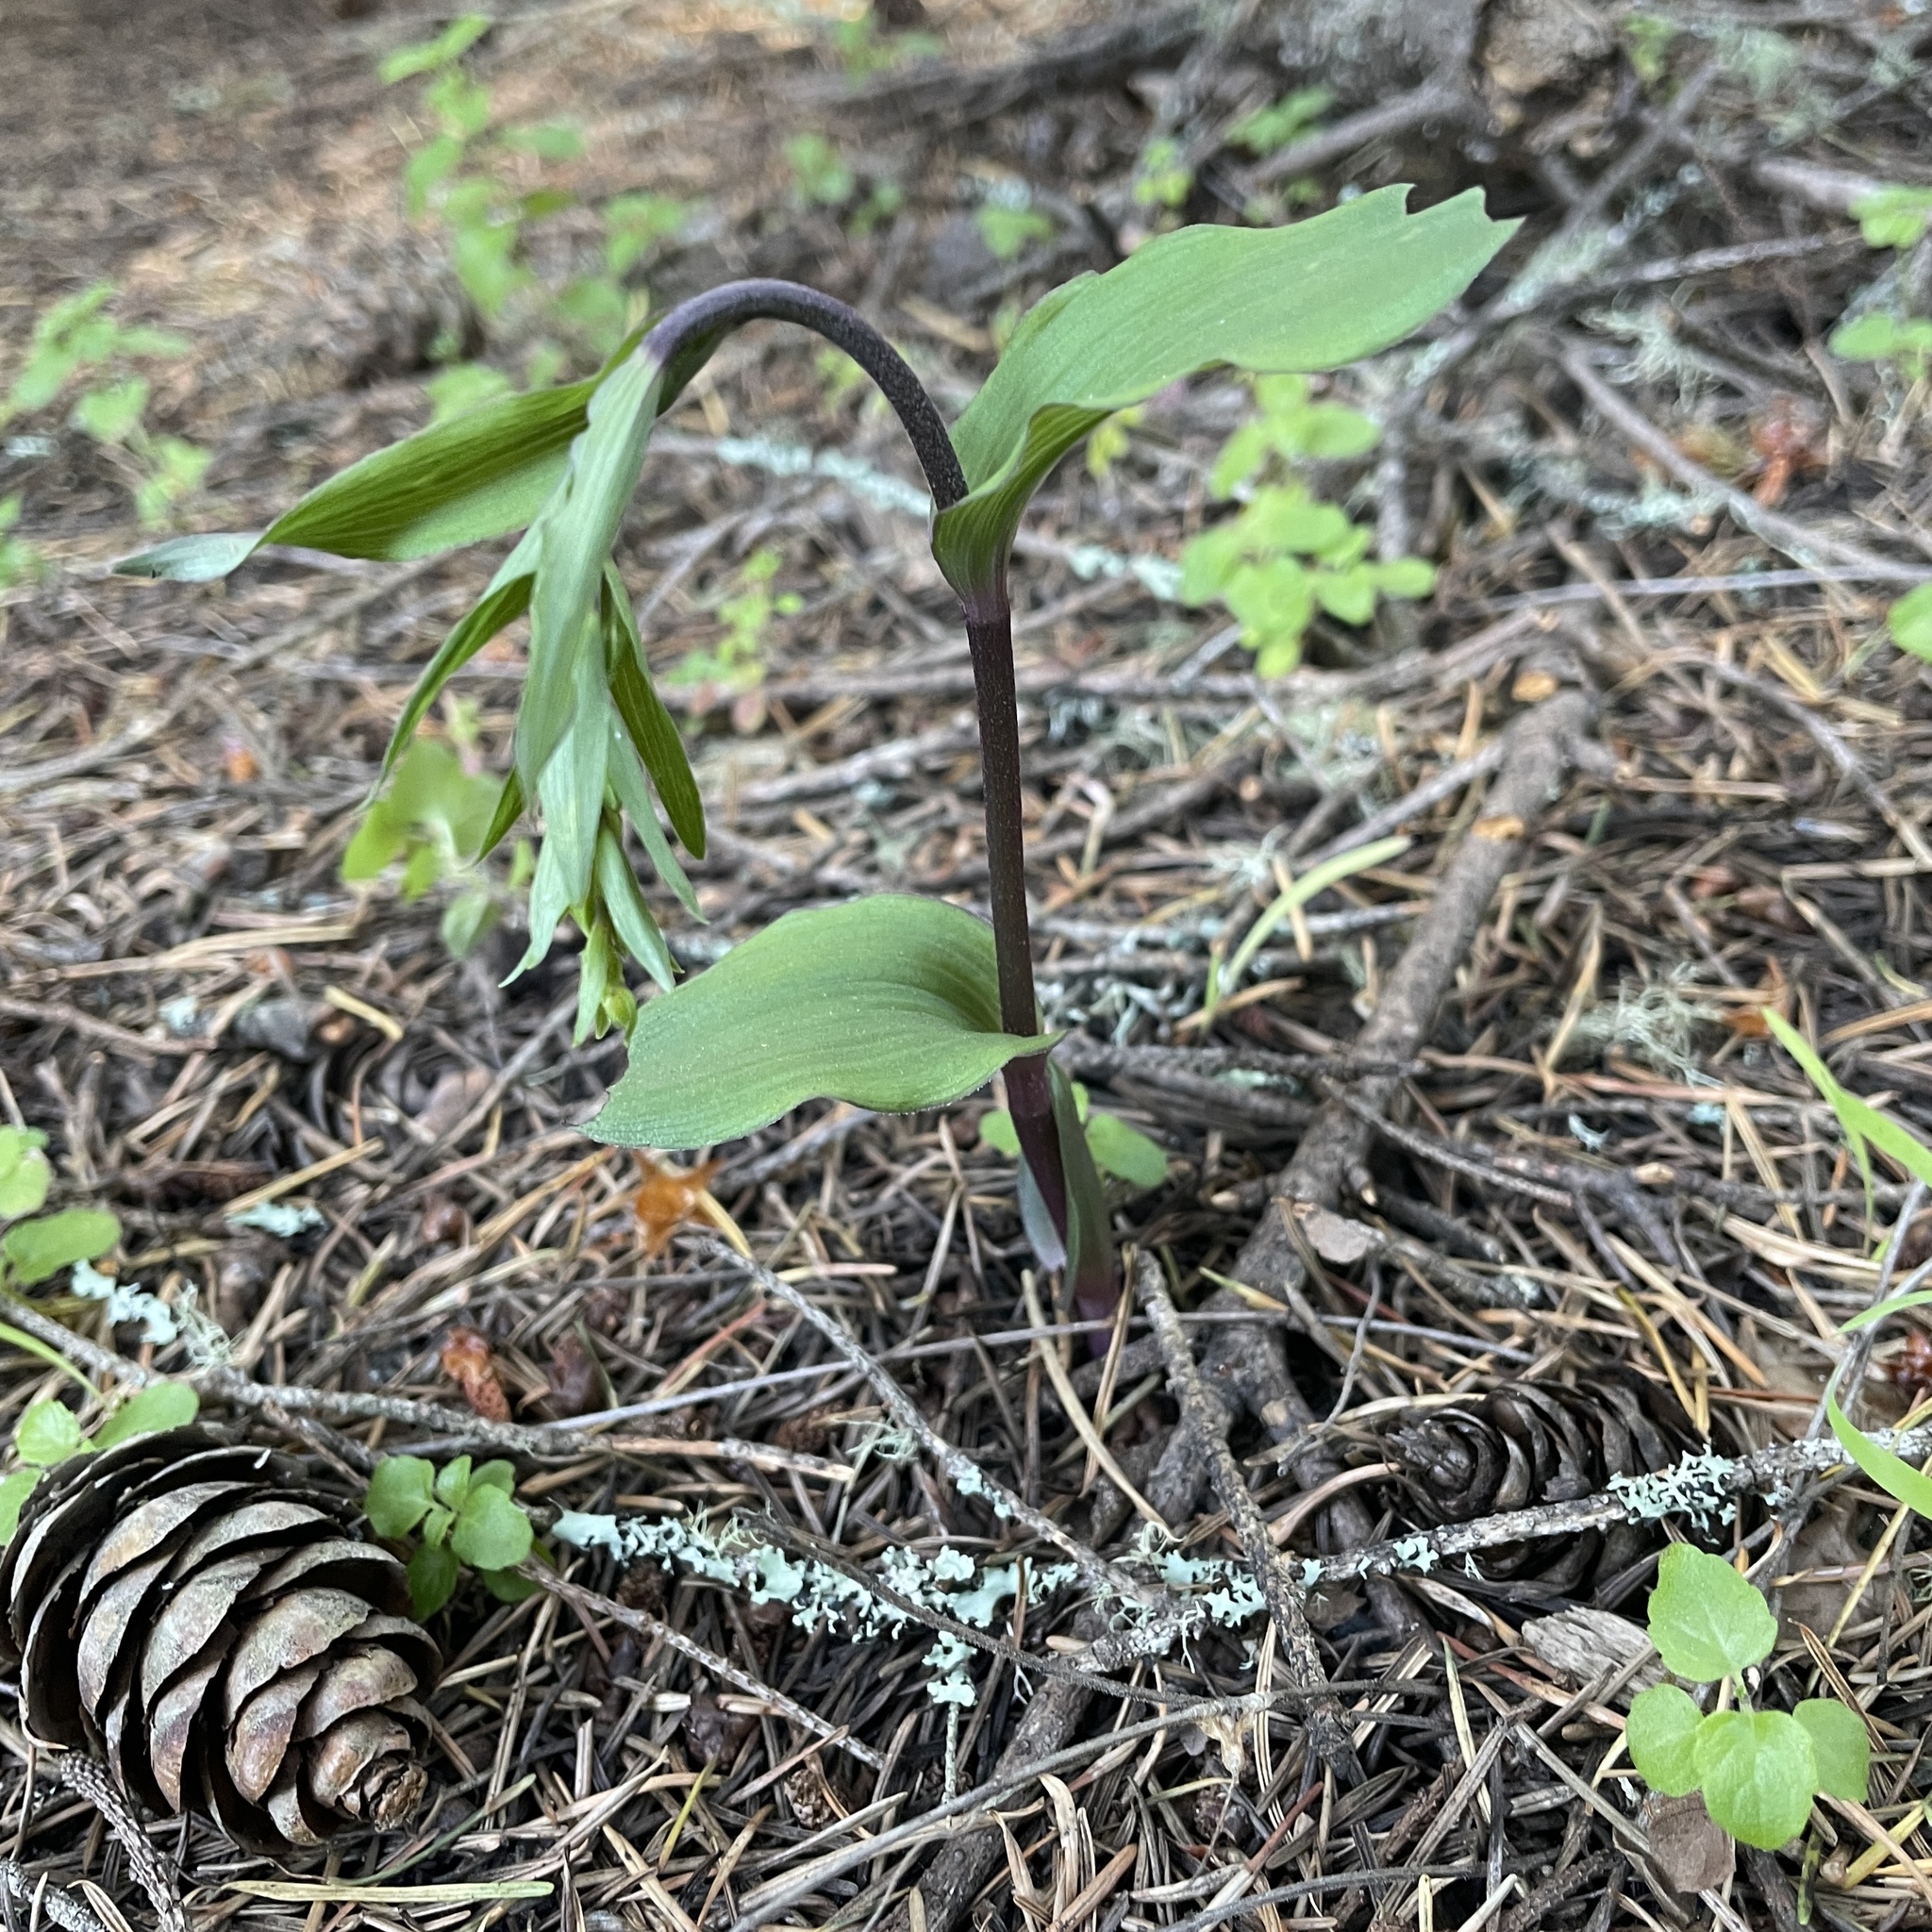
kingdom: Plantae
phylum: Tracheophyta
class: Liliopsida
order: Asparagales
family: Orchidaceae
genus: Epipactis
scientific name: Epipactis helleborine
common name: Broad-leaved helleborine
